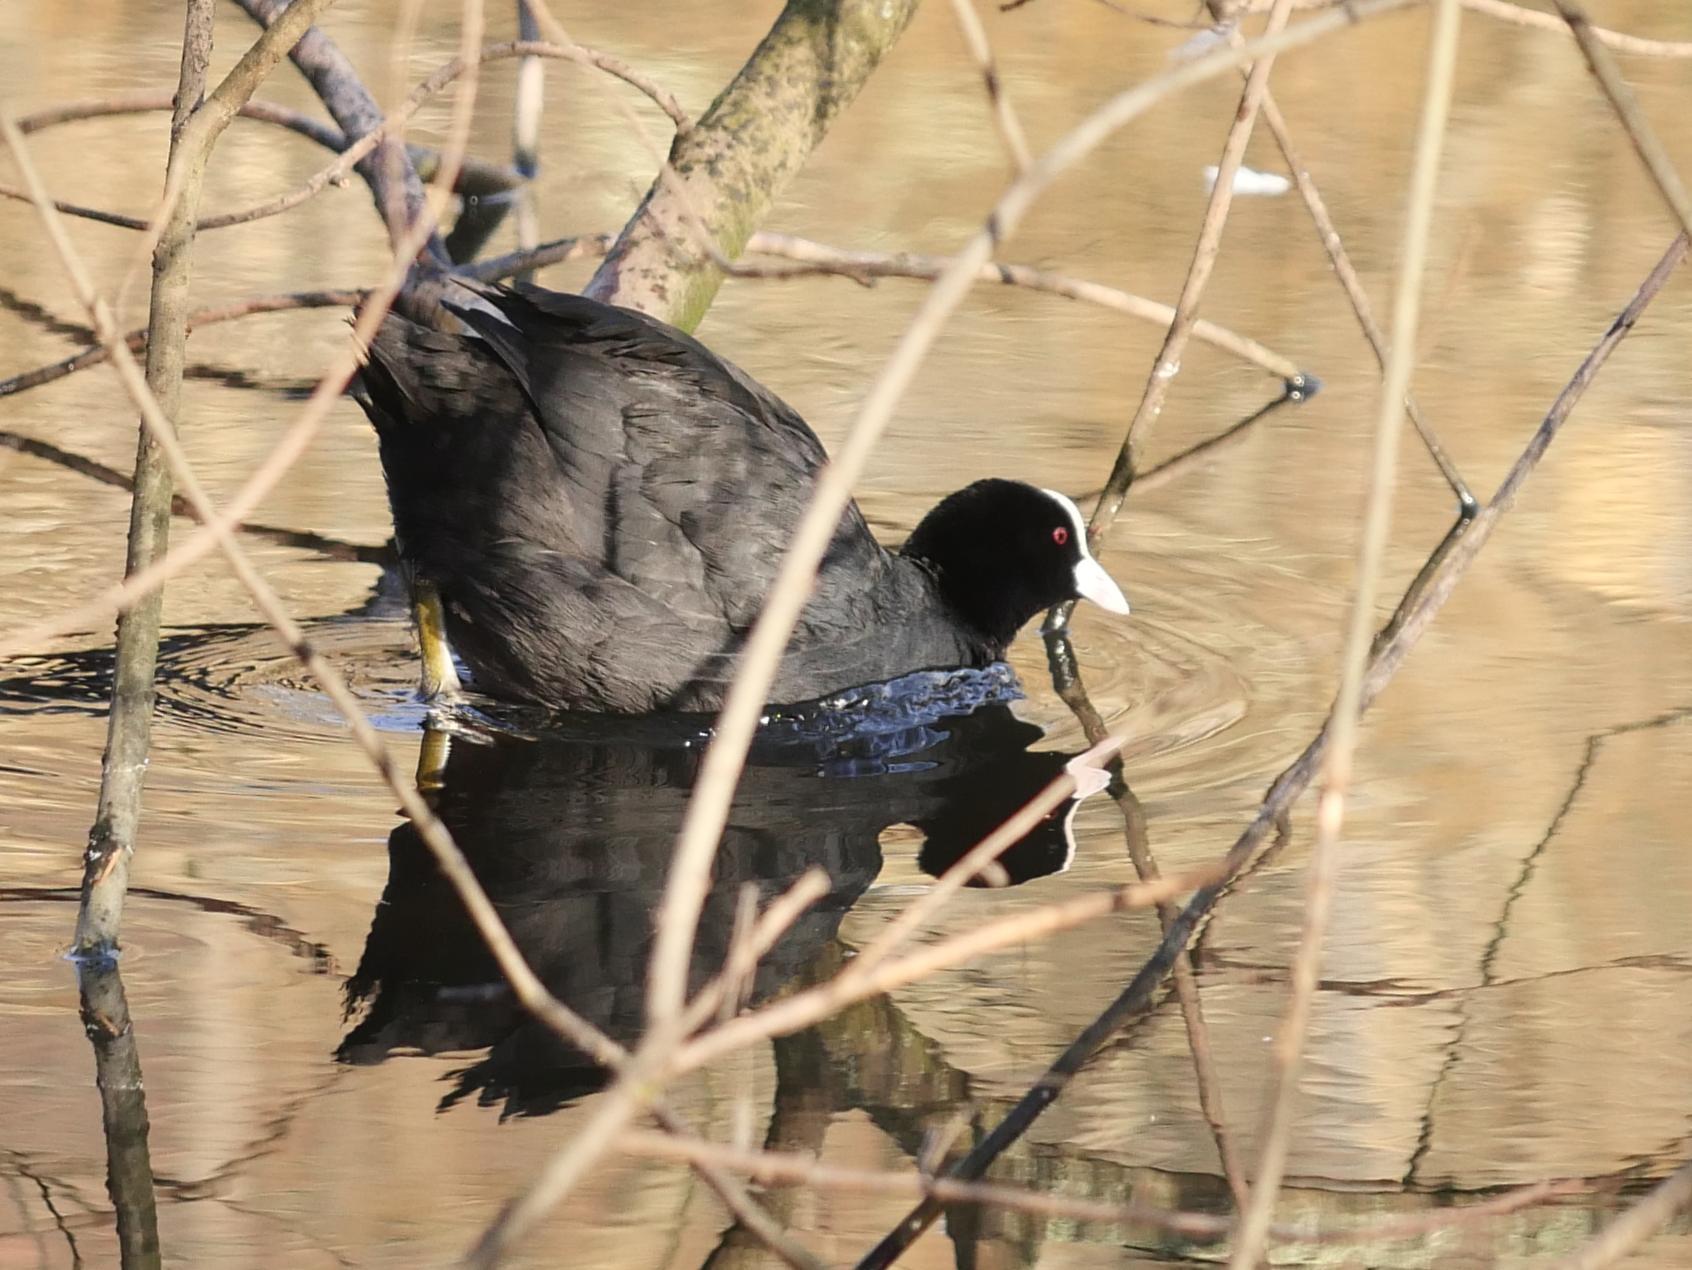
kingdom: Animalia
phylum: Chordata
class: Aves
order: Gruiformes
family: Rallidae
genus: Fulica
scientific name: Fulica atra
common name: Eurasian coot
